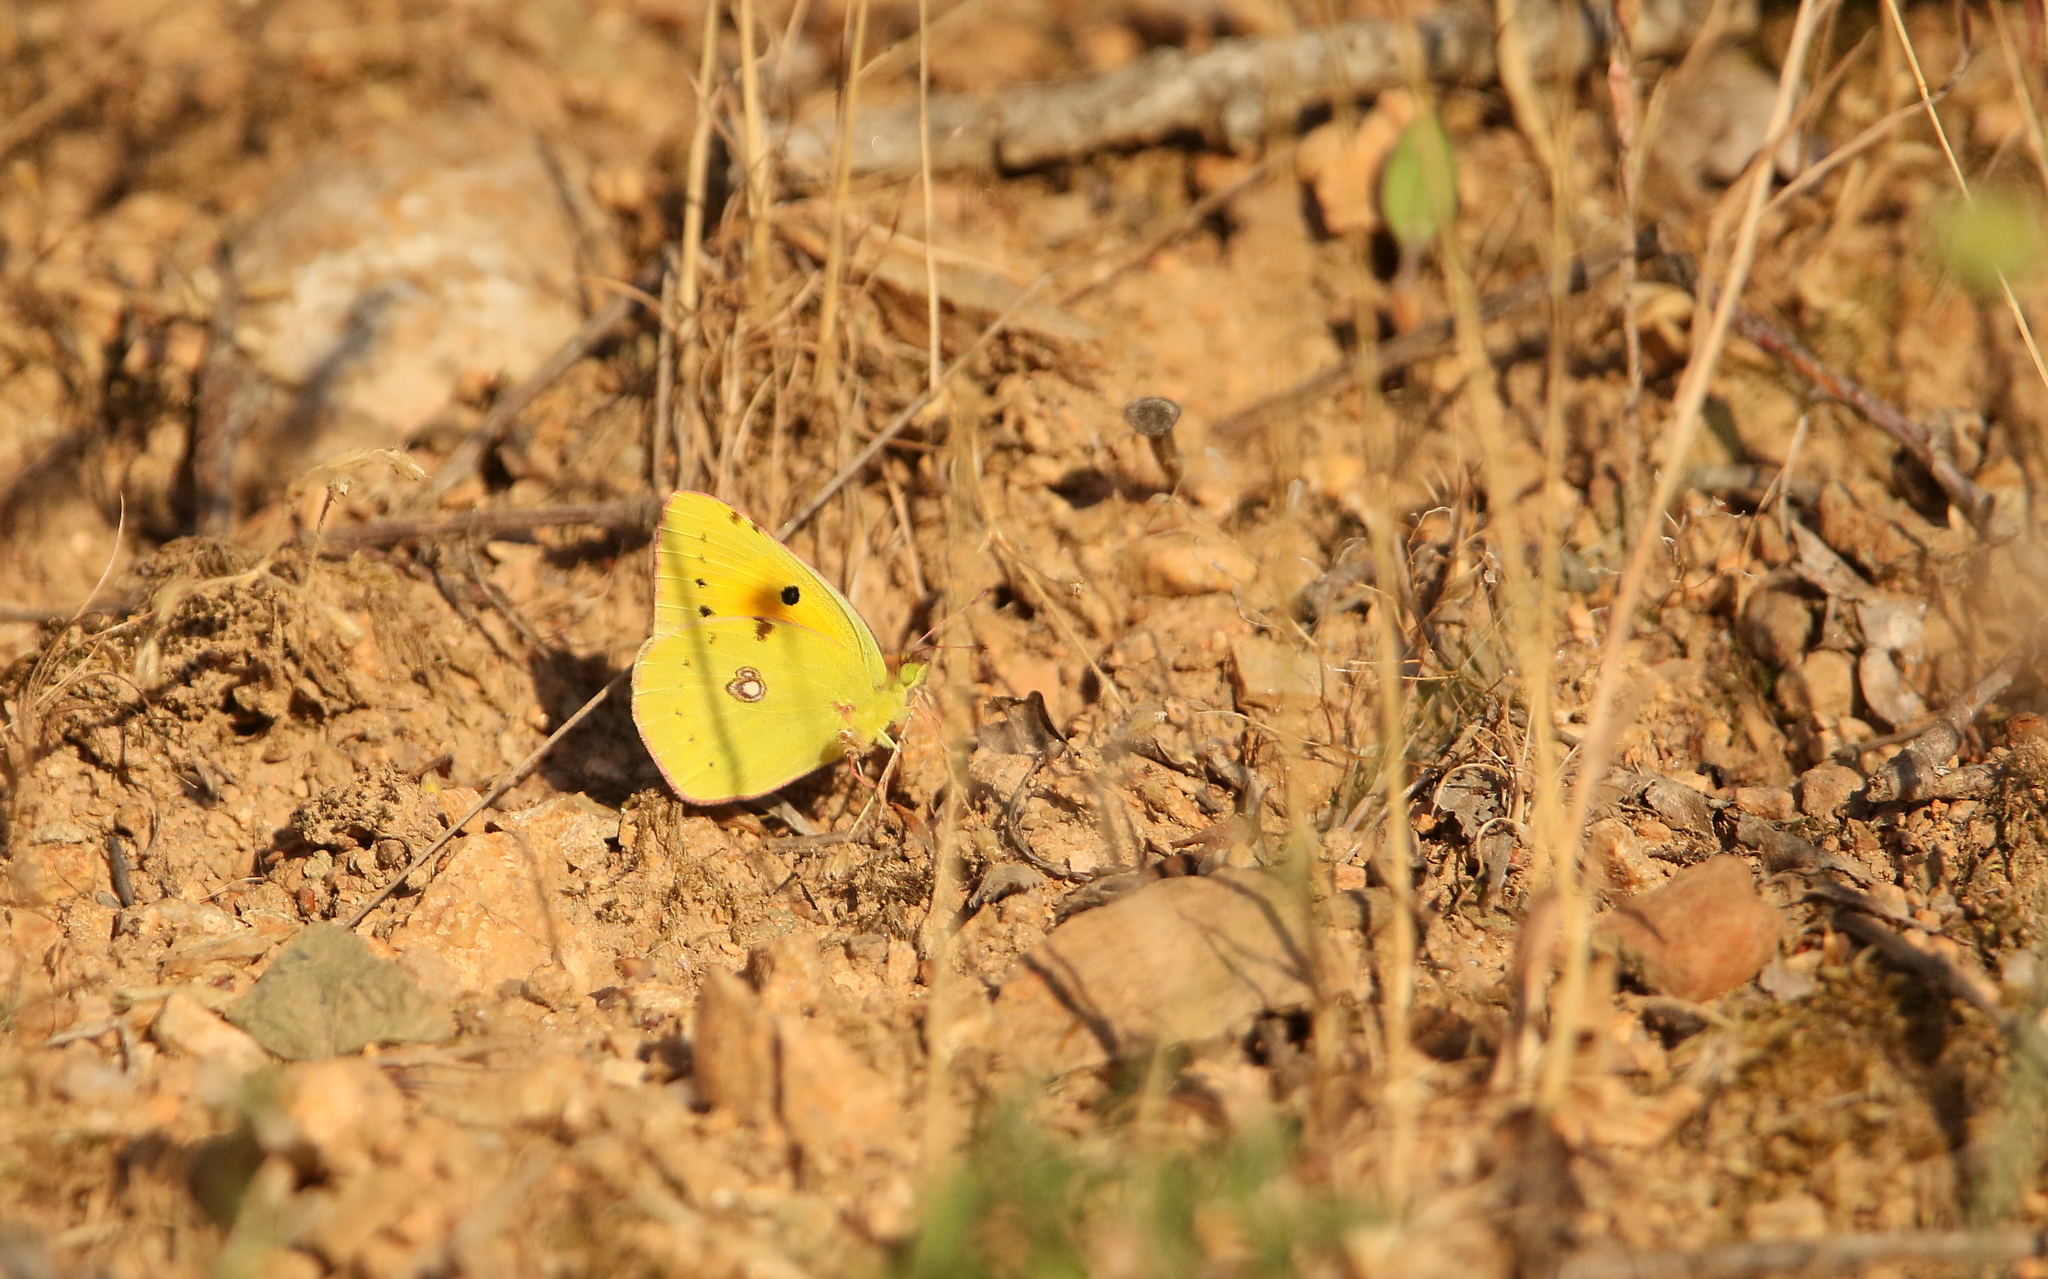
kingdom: Animalia
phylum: Arthropoda
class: Insecta
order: Lepidoptera
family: Pieridae
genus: Colias
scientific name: Colias croceus
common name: Clouded yellow
